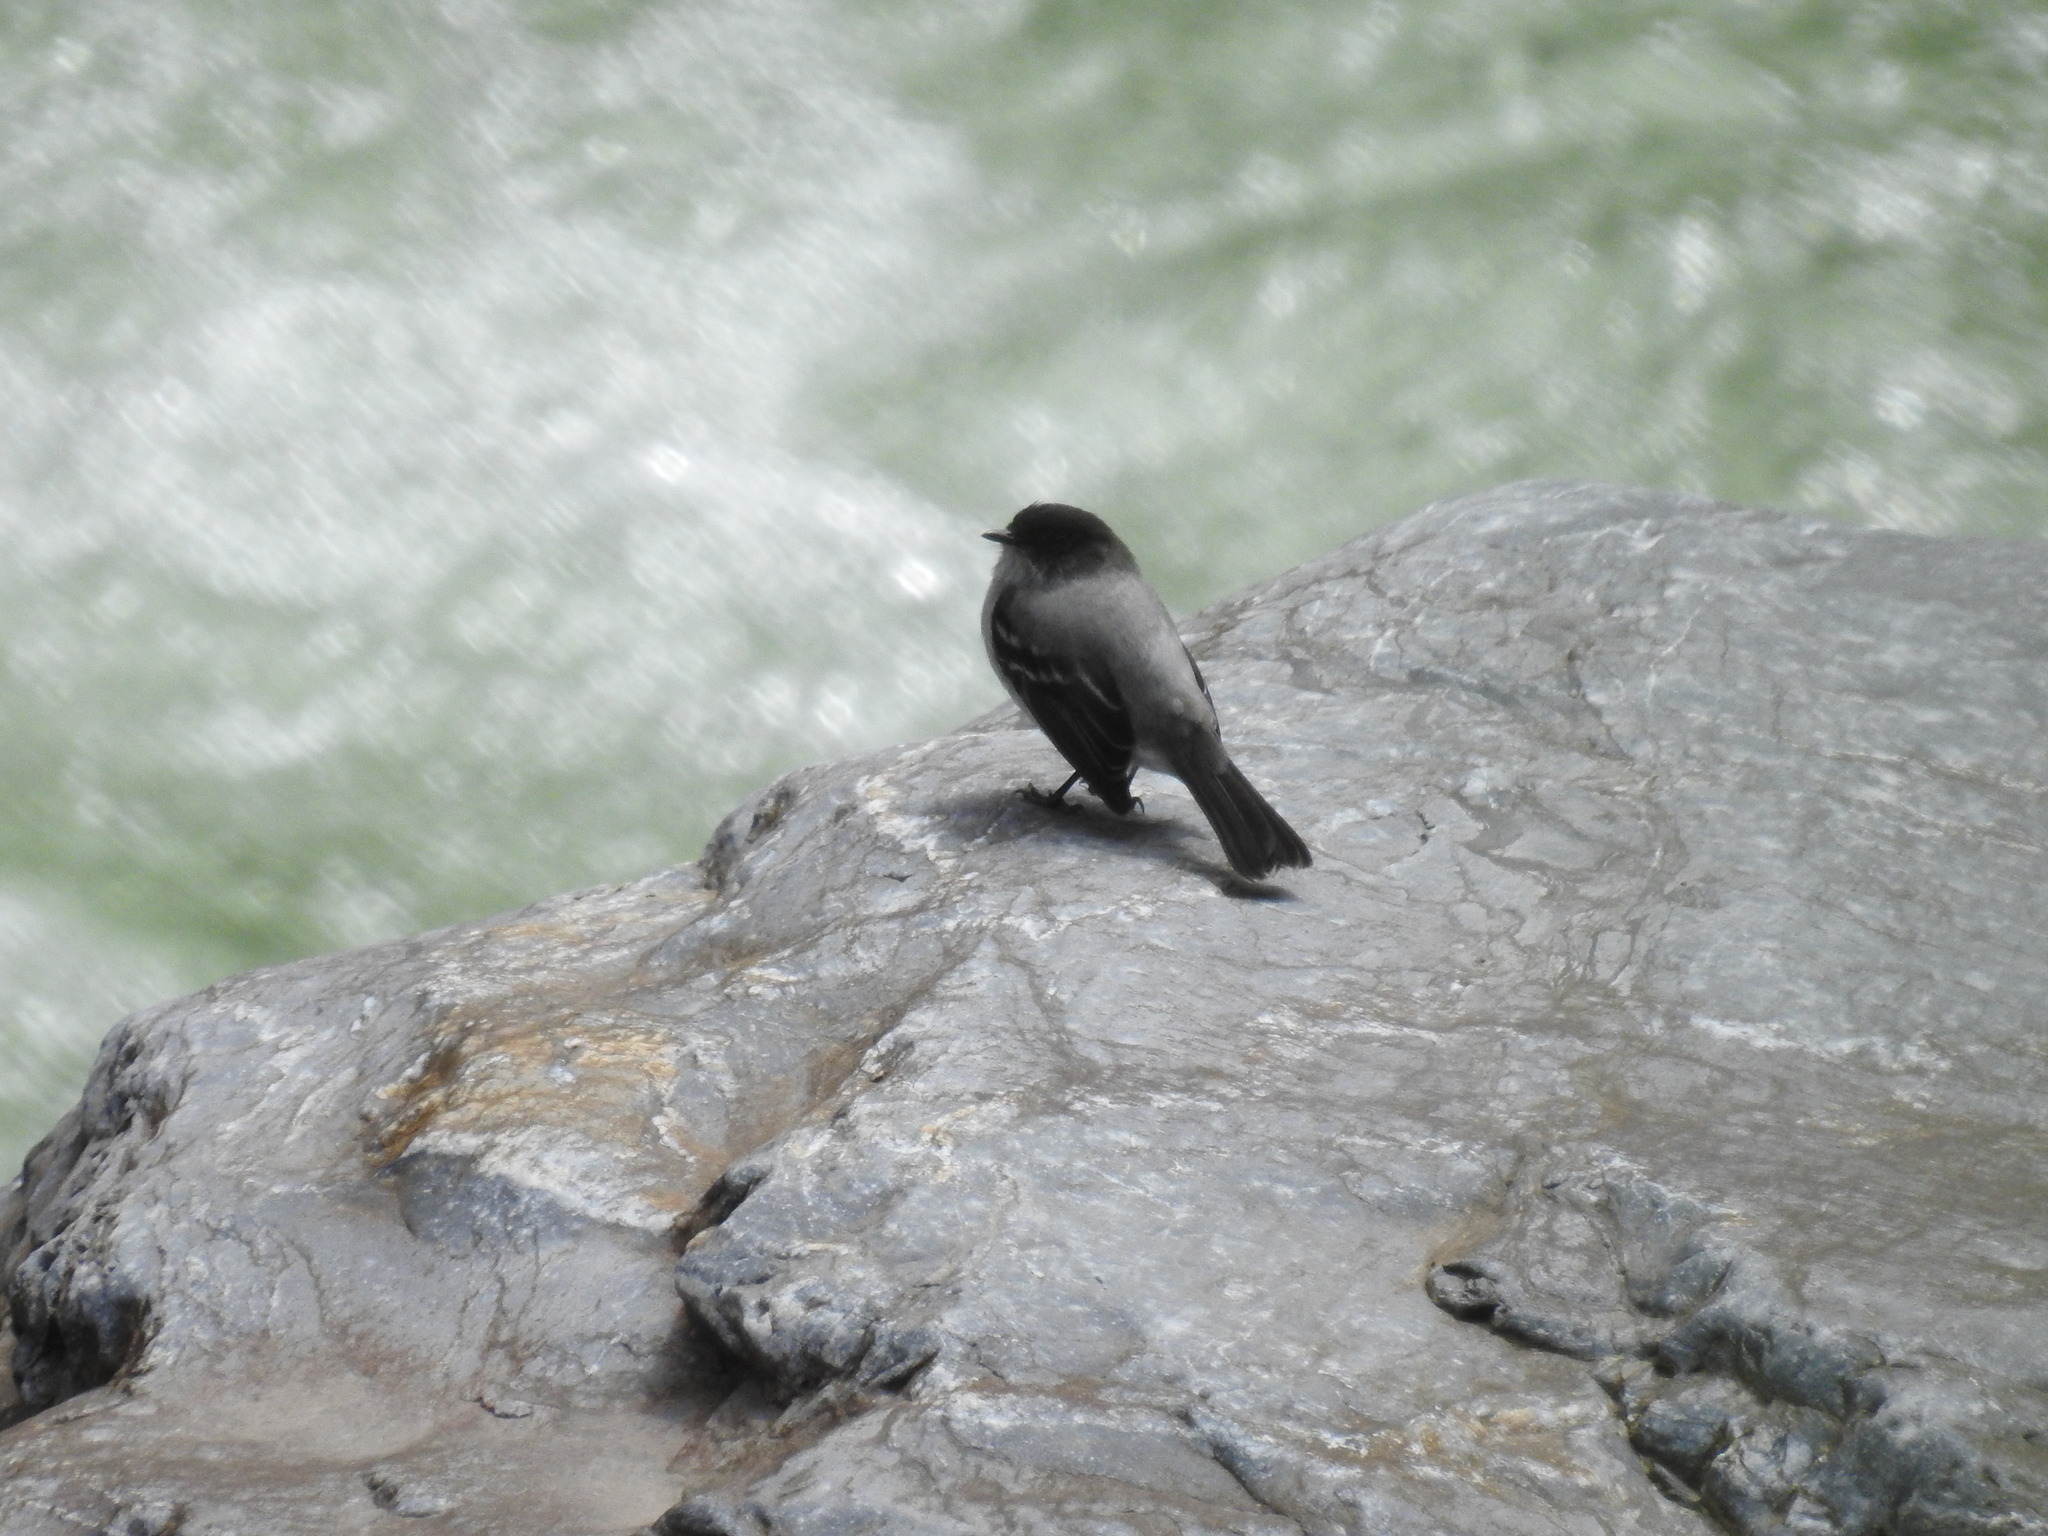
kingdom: Animalia
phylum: Chordata
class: Aves
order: Passeriformes
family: Tyrannidae
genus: Serpophaga
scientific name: Serpophaga cinerea
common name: Torrent tyrannulet
